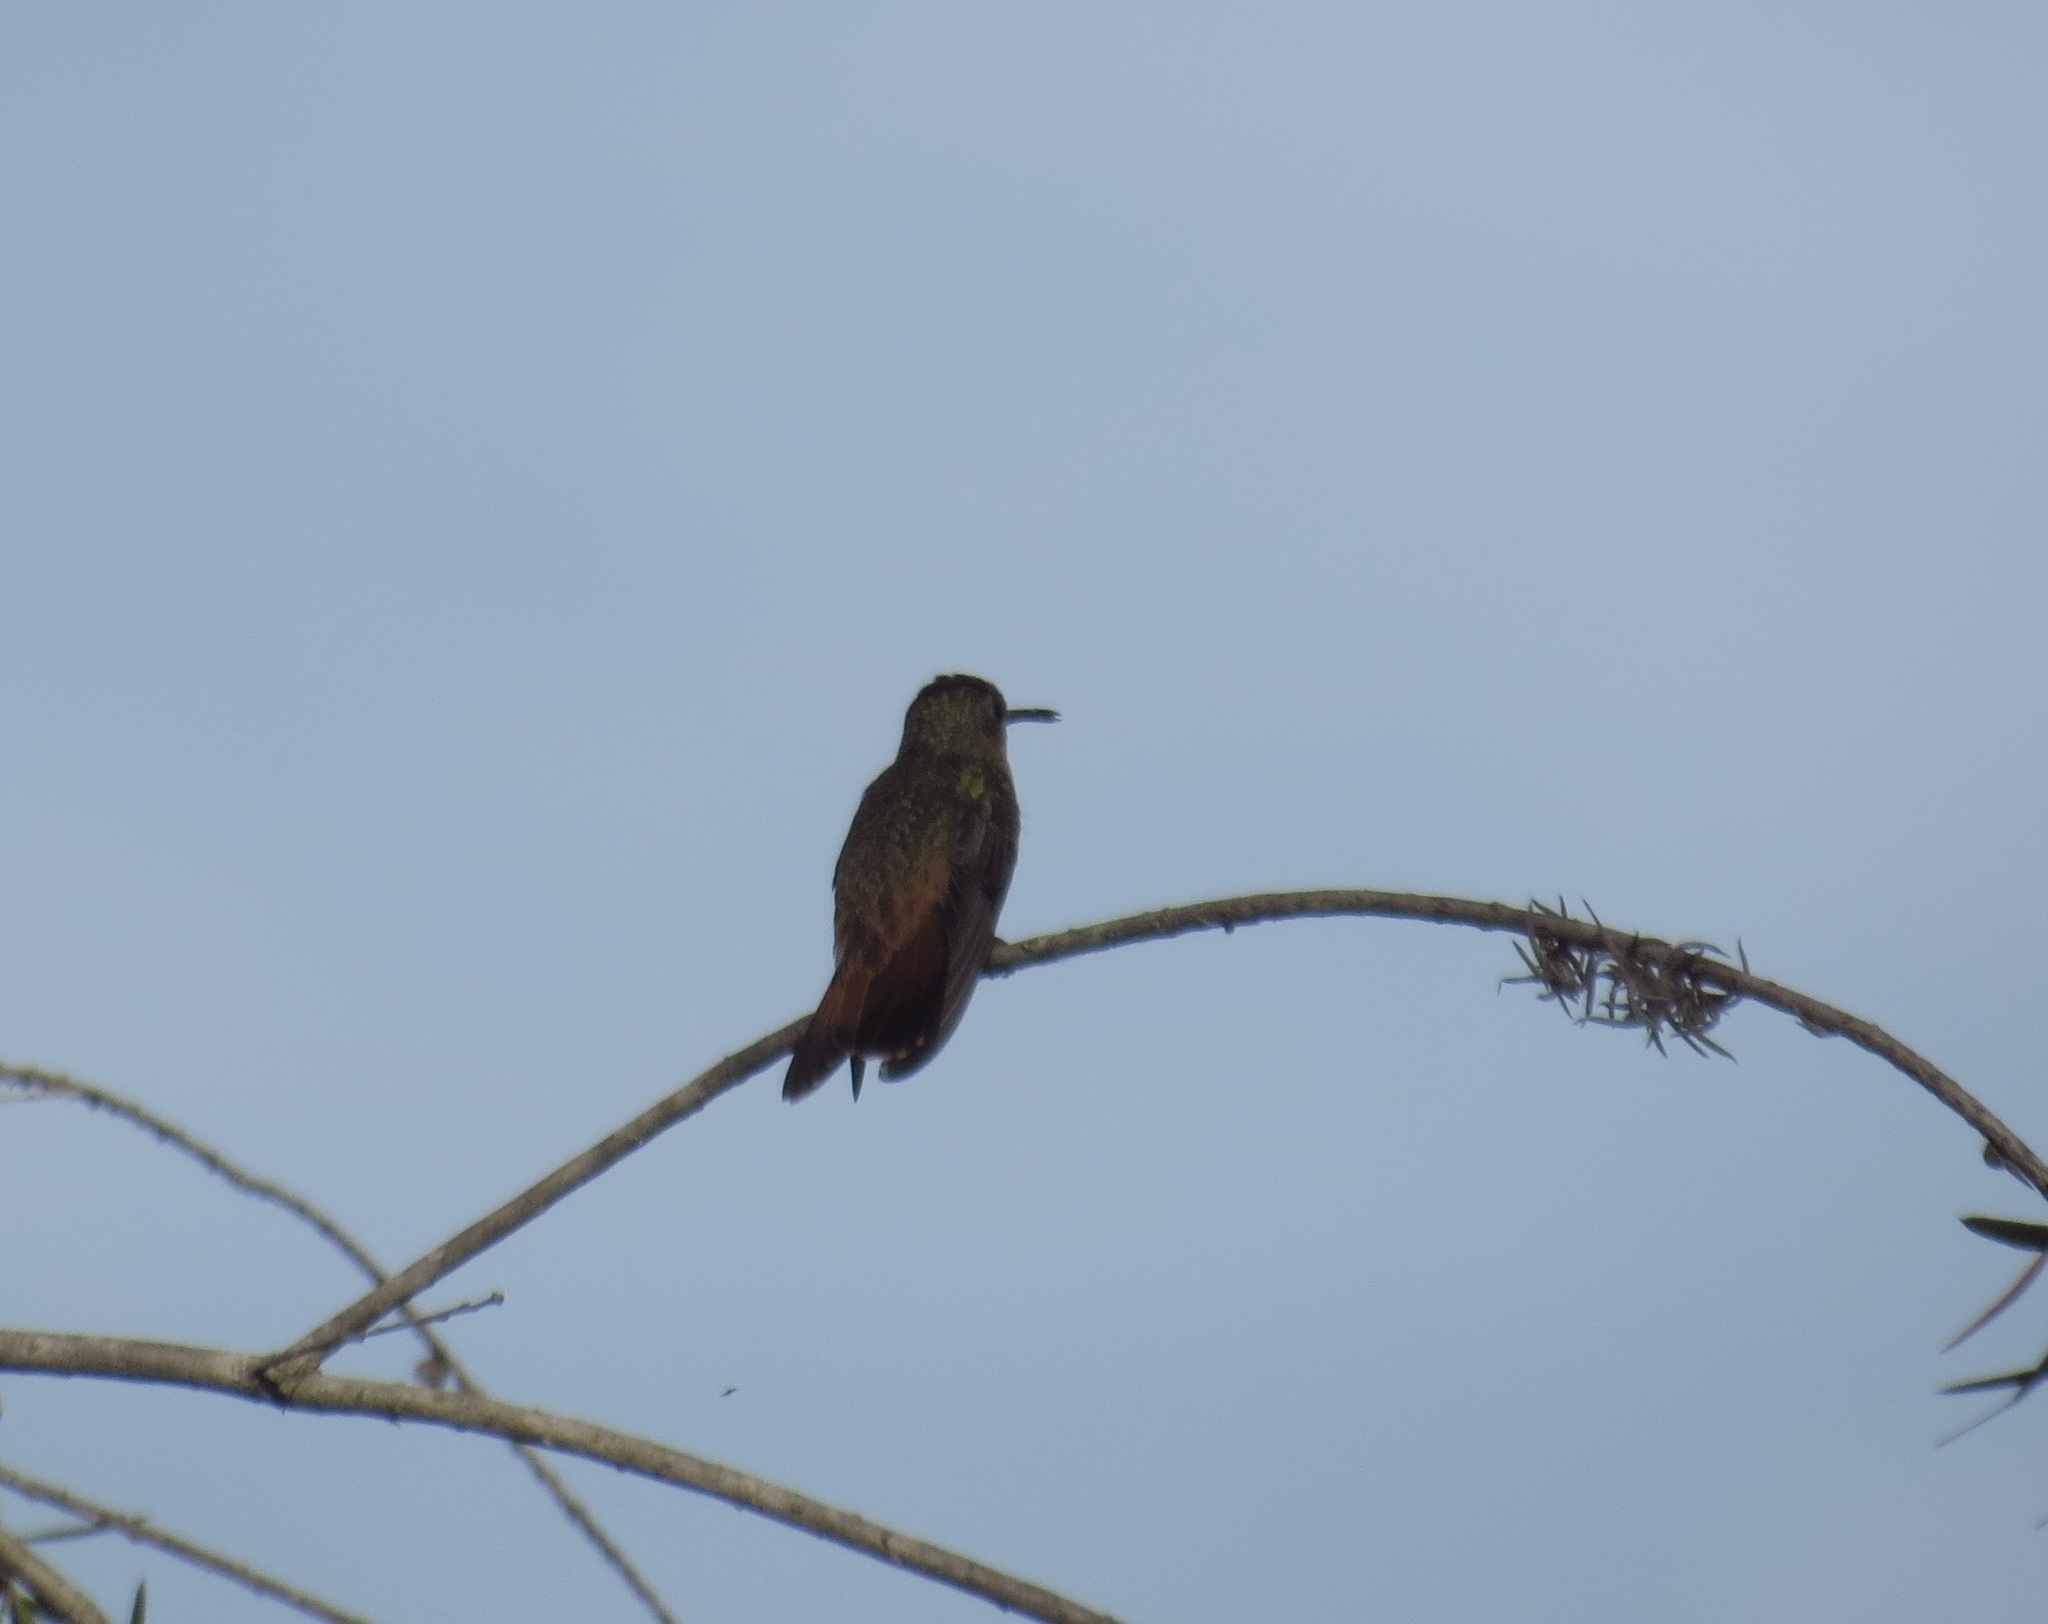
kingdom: Animalia
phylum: Chordata
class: Aves
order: Apodiformes
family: Trochilidae
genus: Amazilia
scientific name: Amazilia rutila
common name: Cinnamon hummingbird
